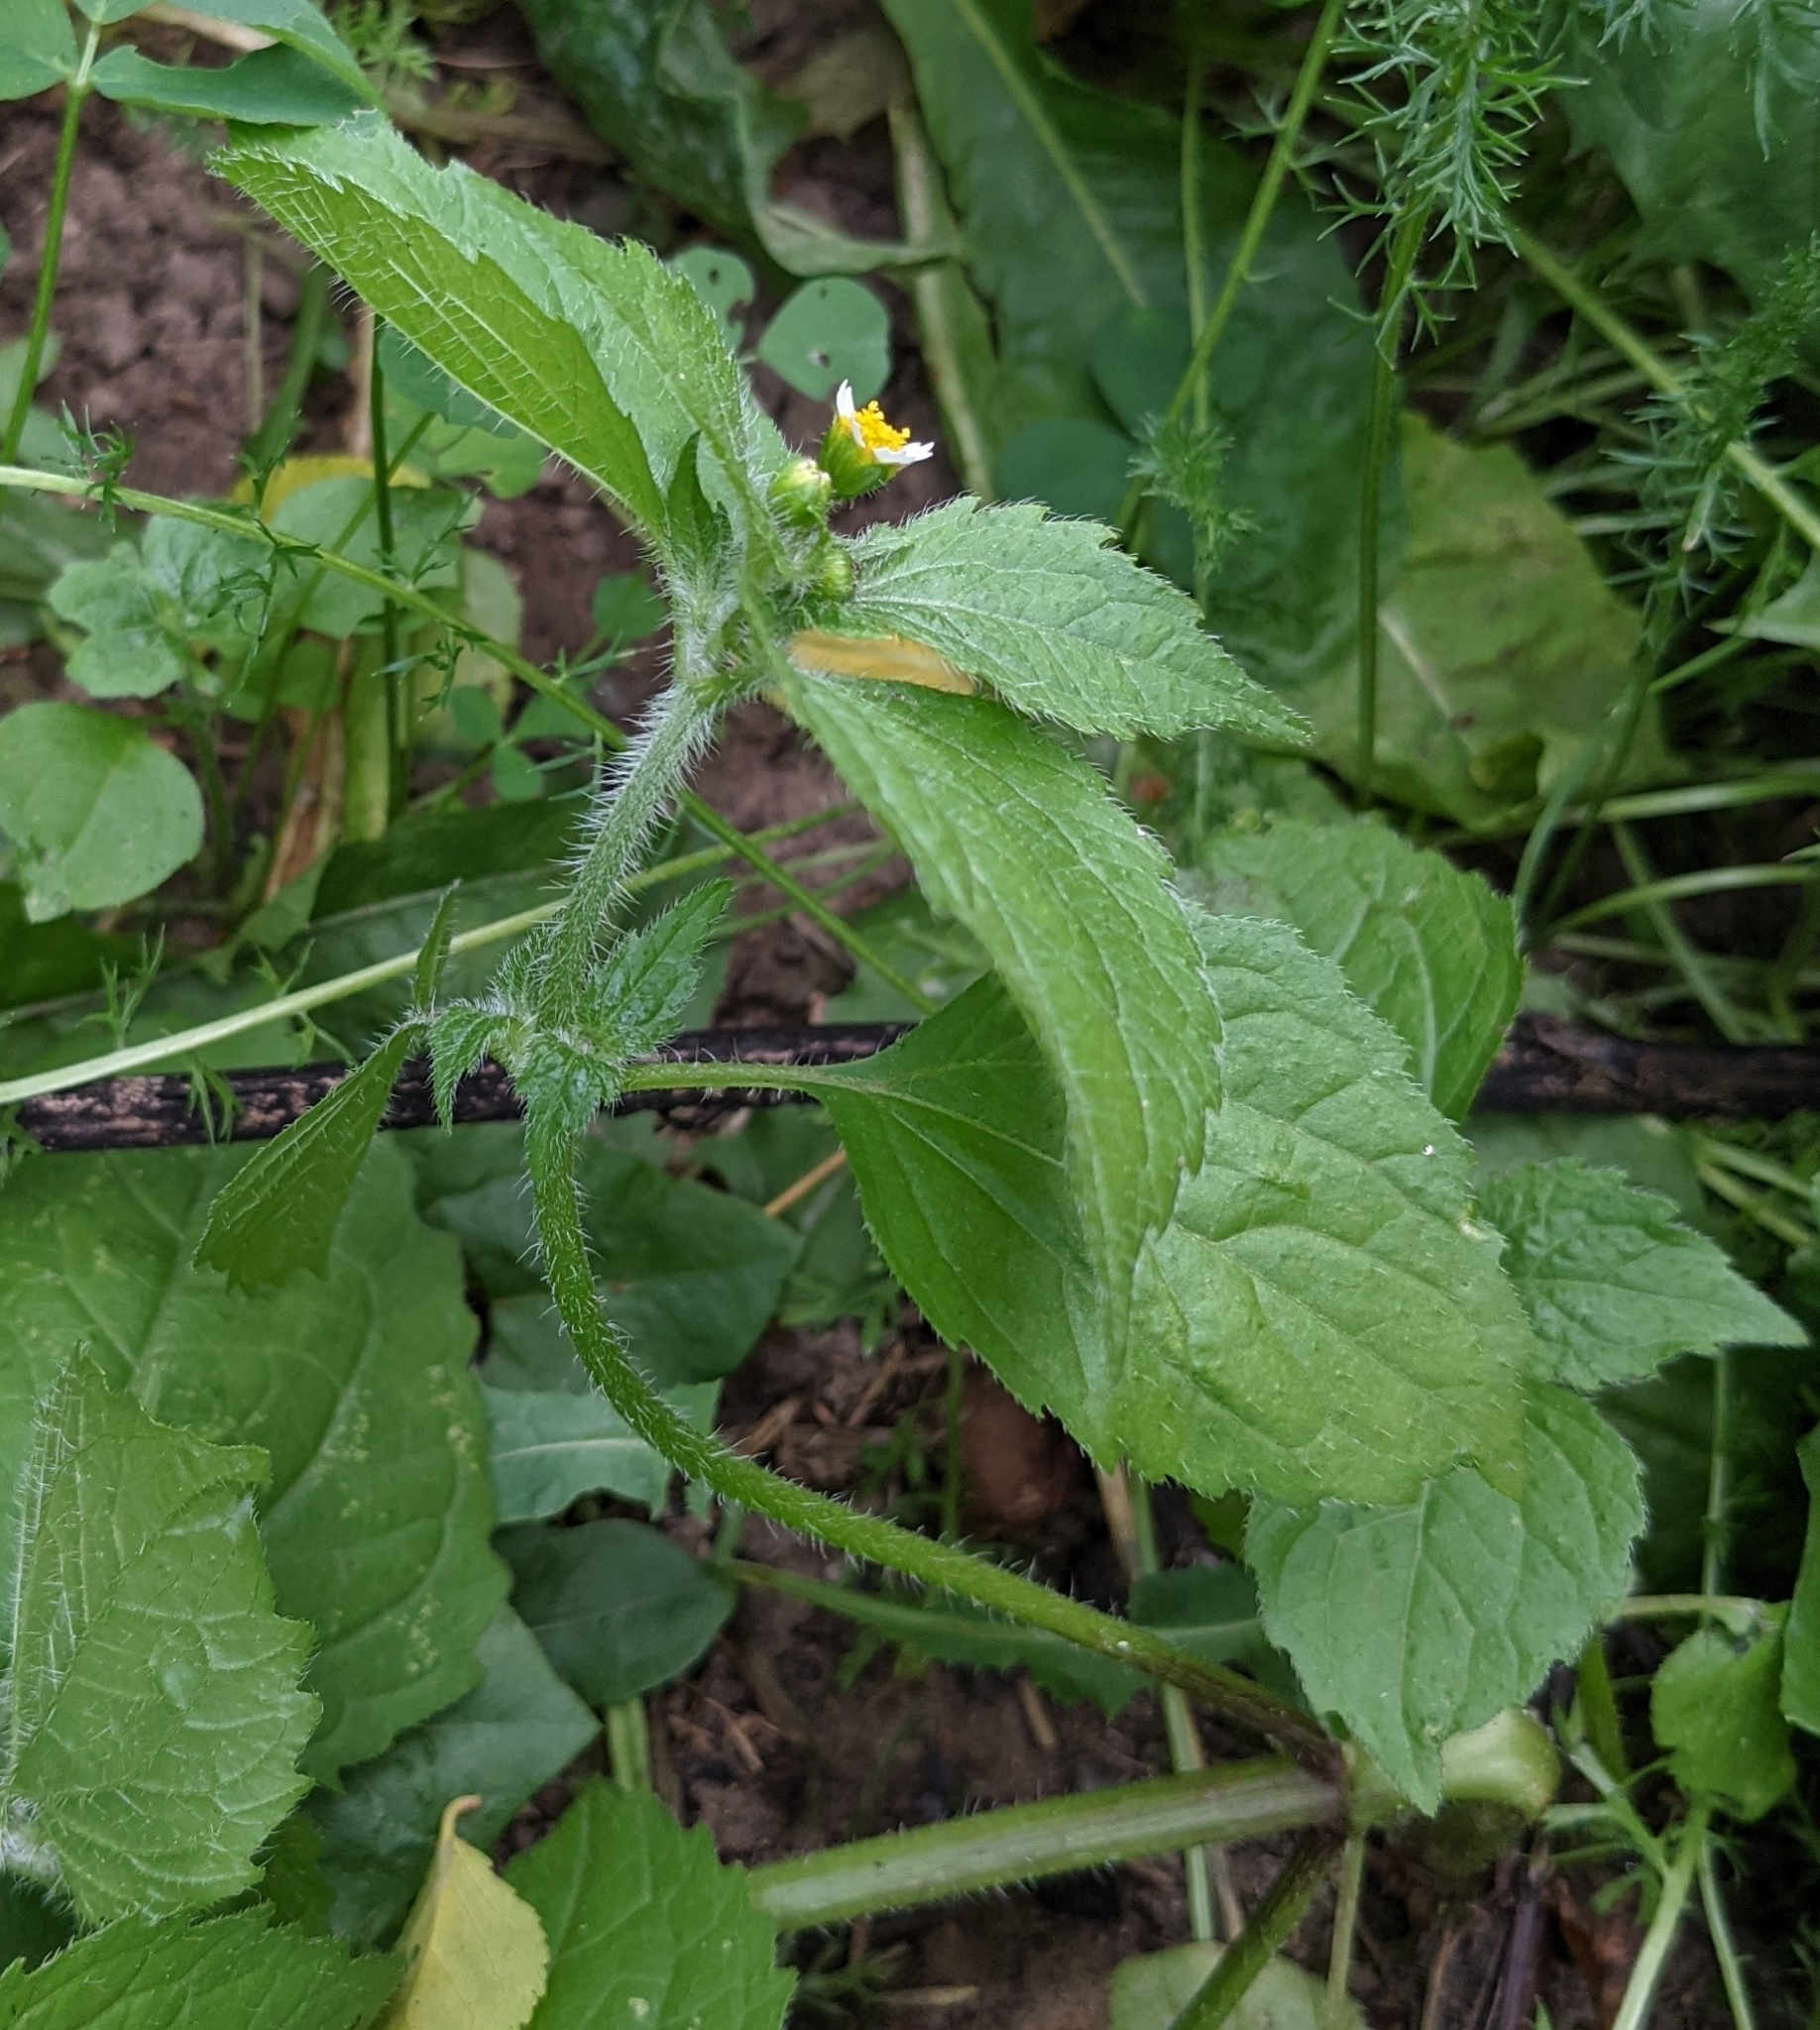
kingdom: Plantae
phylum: Tracheophyta
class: Magnoliopsida
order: Asterales
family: Asteraceae
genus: Galinsoga
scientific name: Galinsoga quadriradiata
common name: Shaggy soldier
